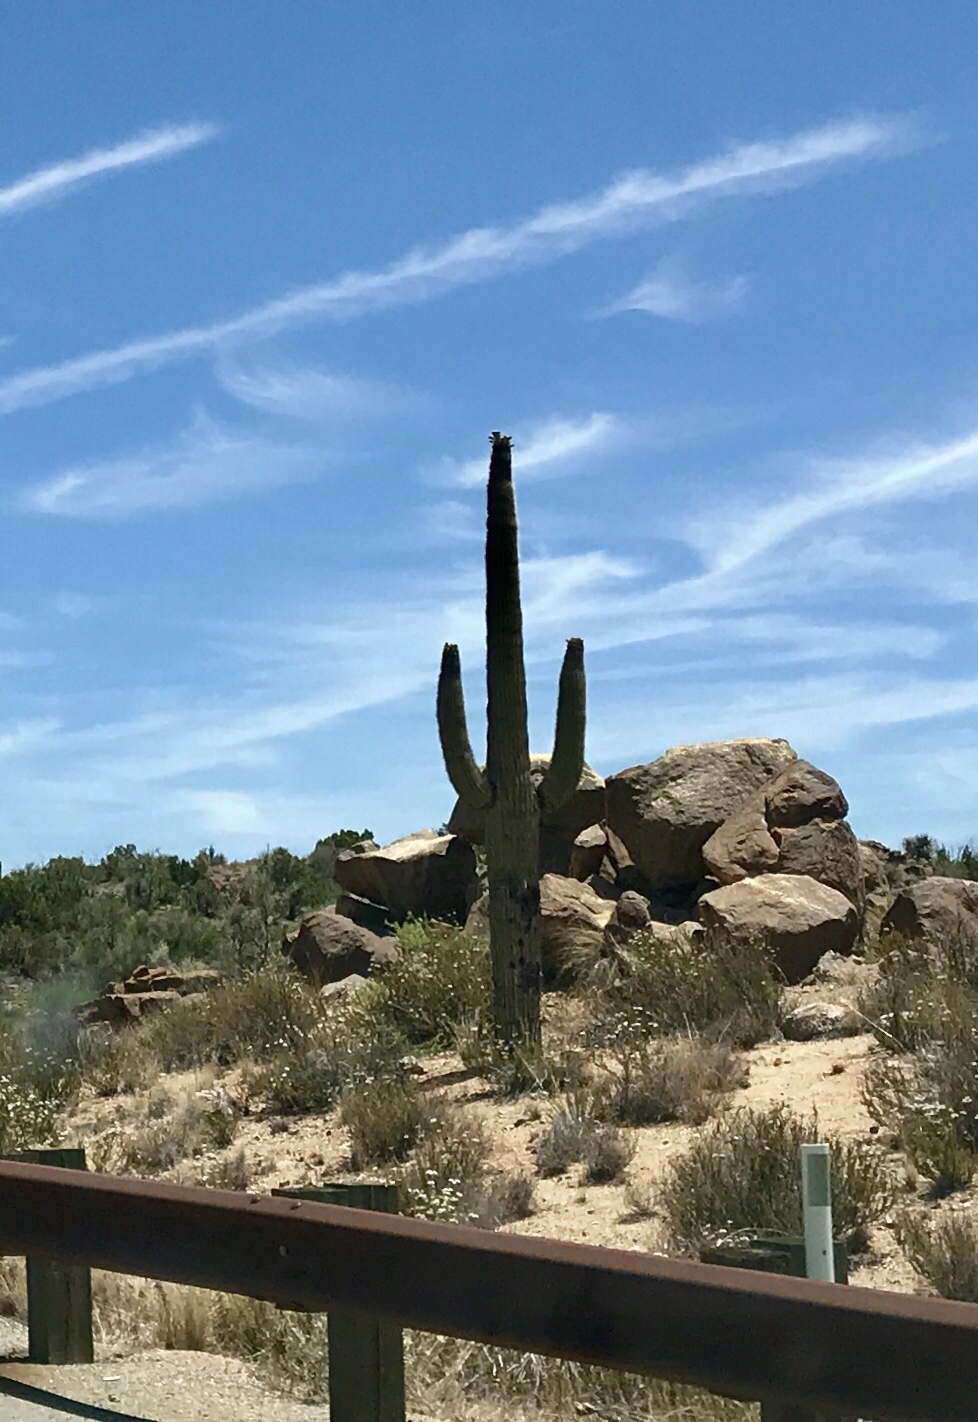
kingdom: Plantae
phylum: Tracheophyta
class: Magnoliopsida
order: Caryophyllales
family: Cactaceae
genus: Carnegiea
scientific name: Carnegiea gigantea
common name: Saguaro
